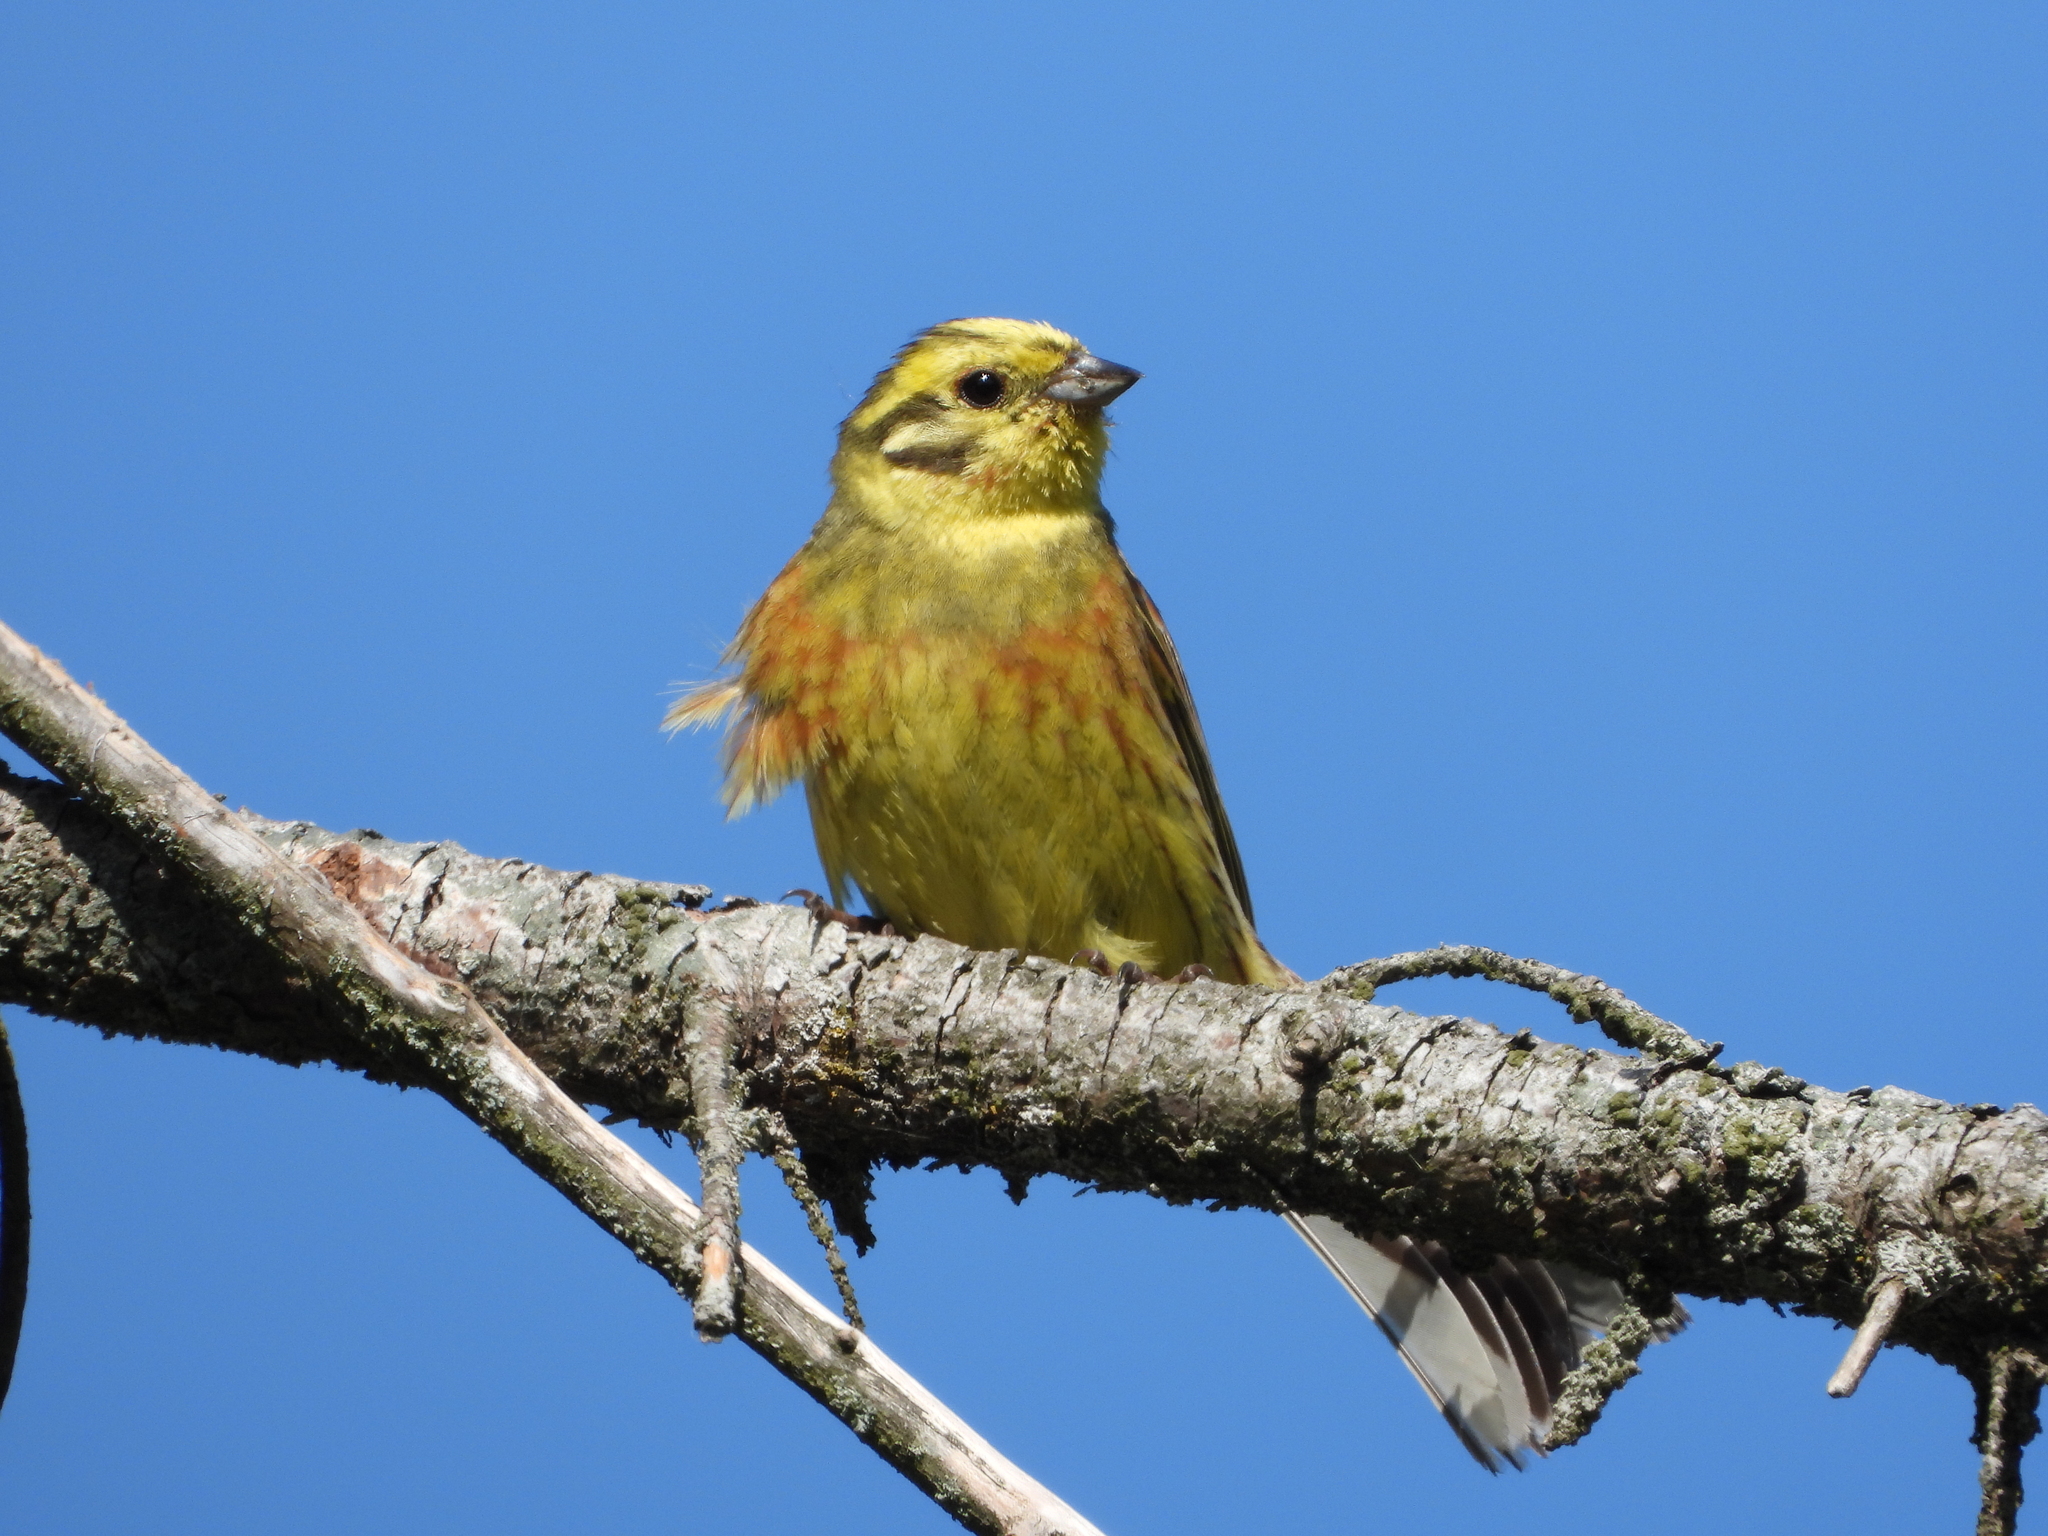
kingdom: Animalia
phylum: Chordata
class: Aves
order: Passeriformes
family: Emberizidae
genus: Emberiza
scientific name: Emberiza citrinella
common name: Yellowhammer
